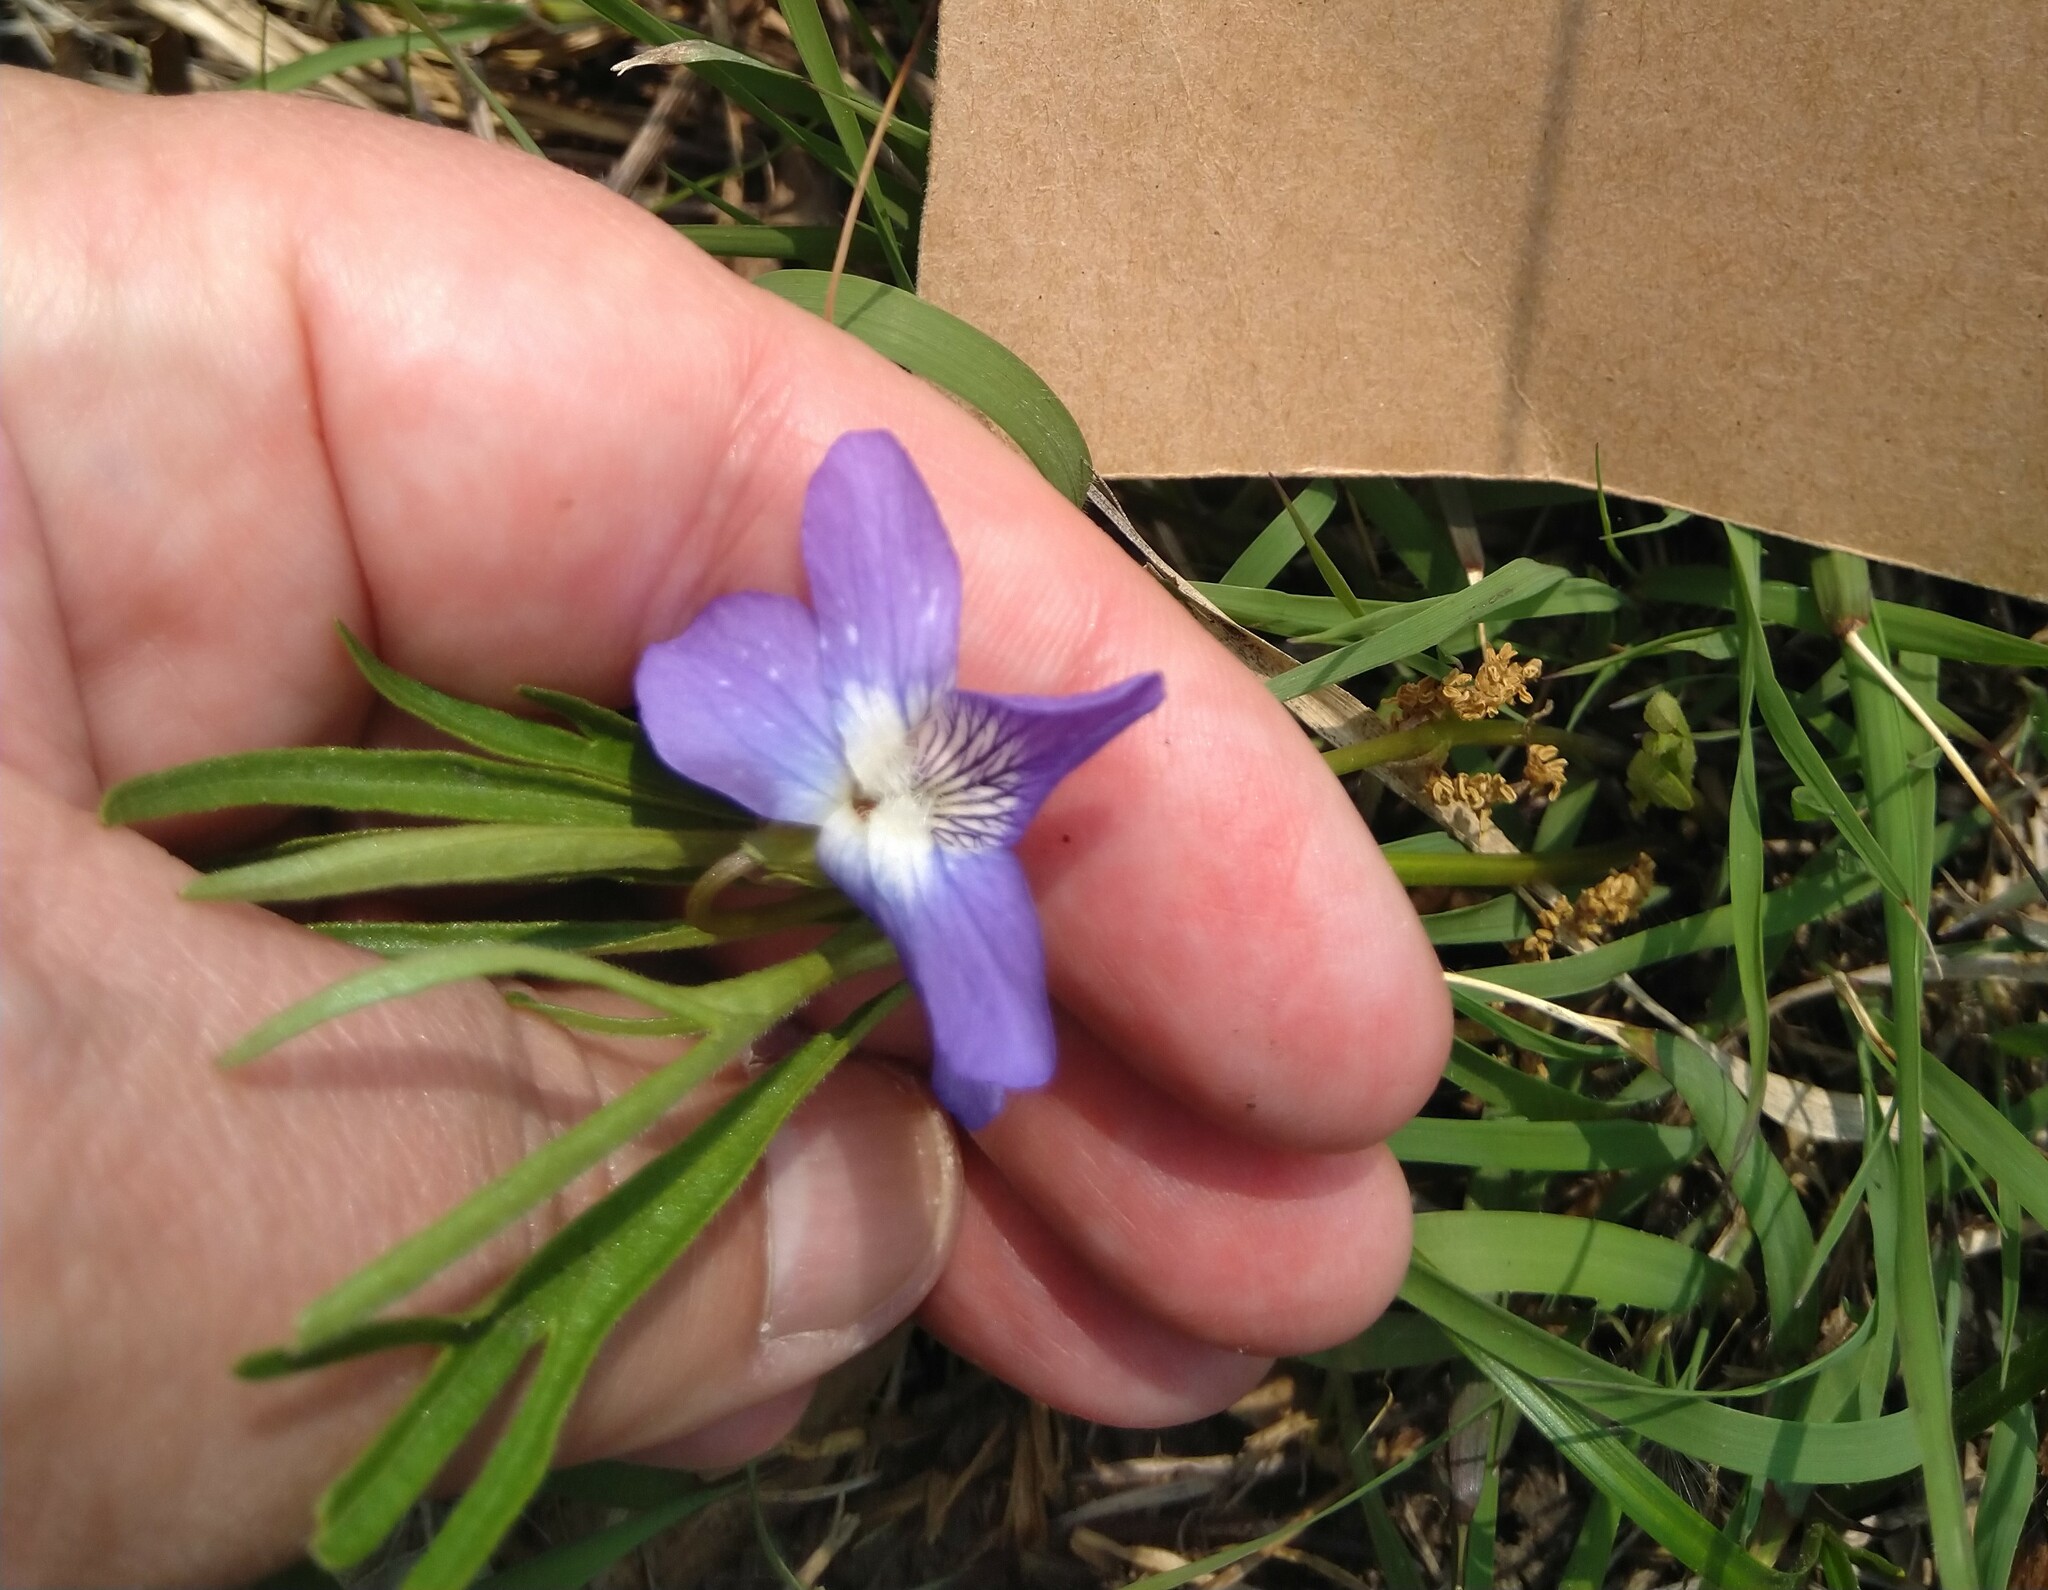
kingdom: Plantae
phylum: Tracheophyta
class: Magnoliopsida
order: Malpighiales
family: Violaceae
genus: Viola
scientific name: Viola pedatifida
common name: Prairie violet
